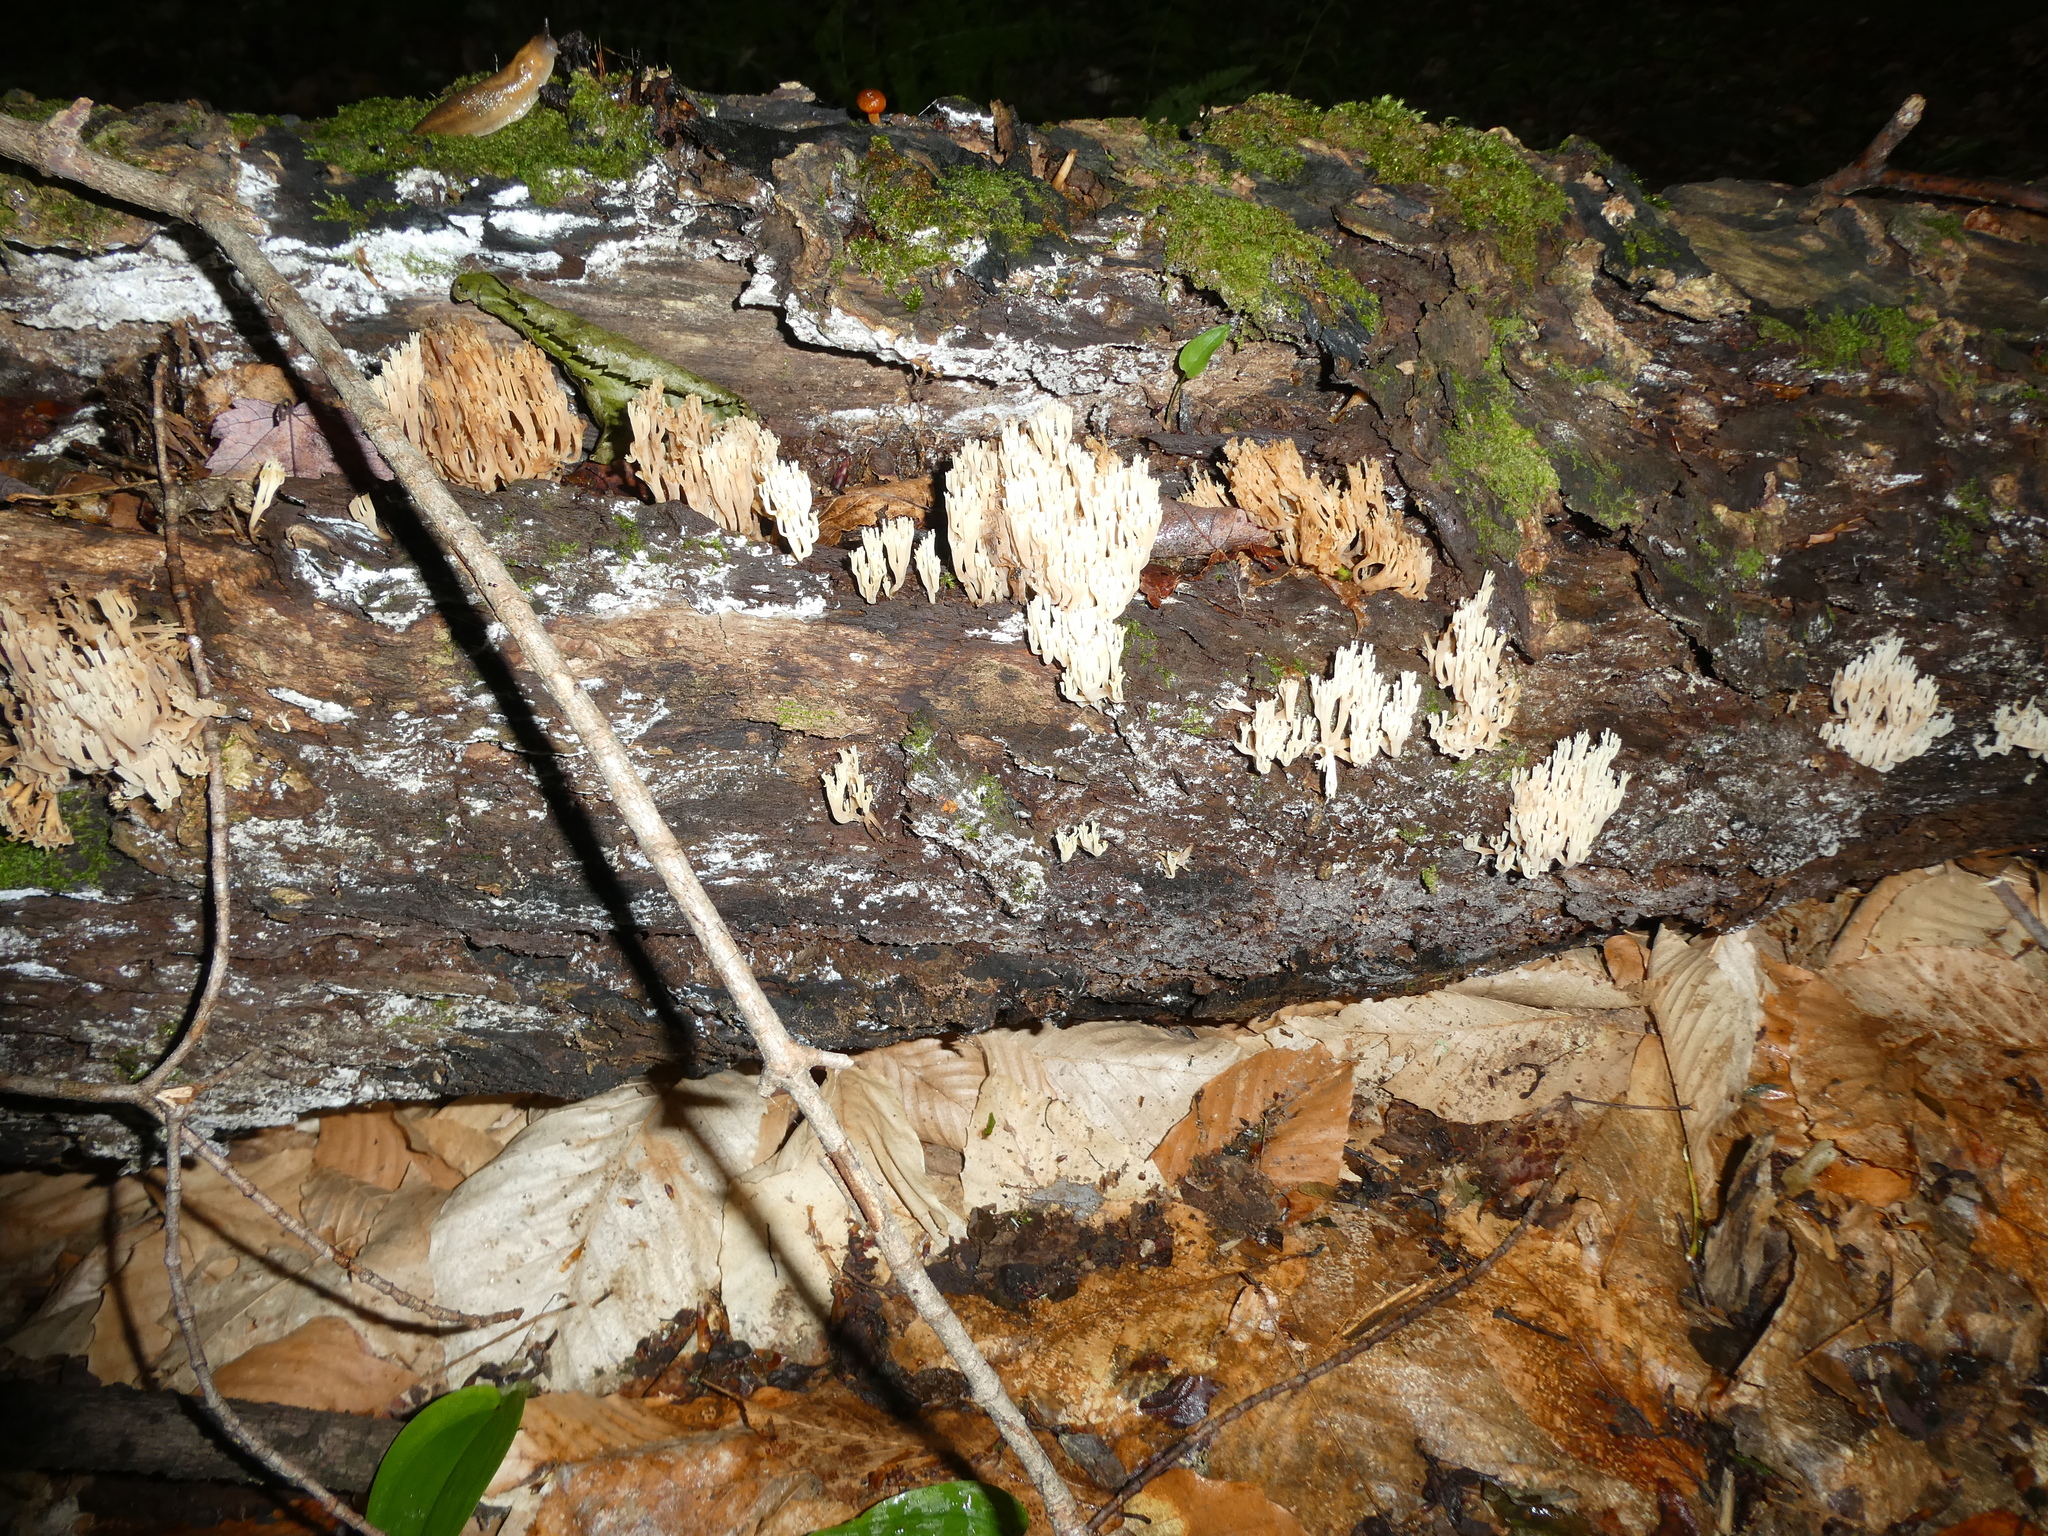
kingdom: Fungi
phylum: Basidiomycota
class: Agaricomycetes
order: Russulales
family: Auriscalpiaceae
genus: Artomyces
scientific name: Artomyces pyxidatus
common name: Crown-tipped coral fungus
